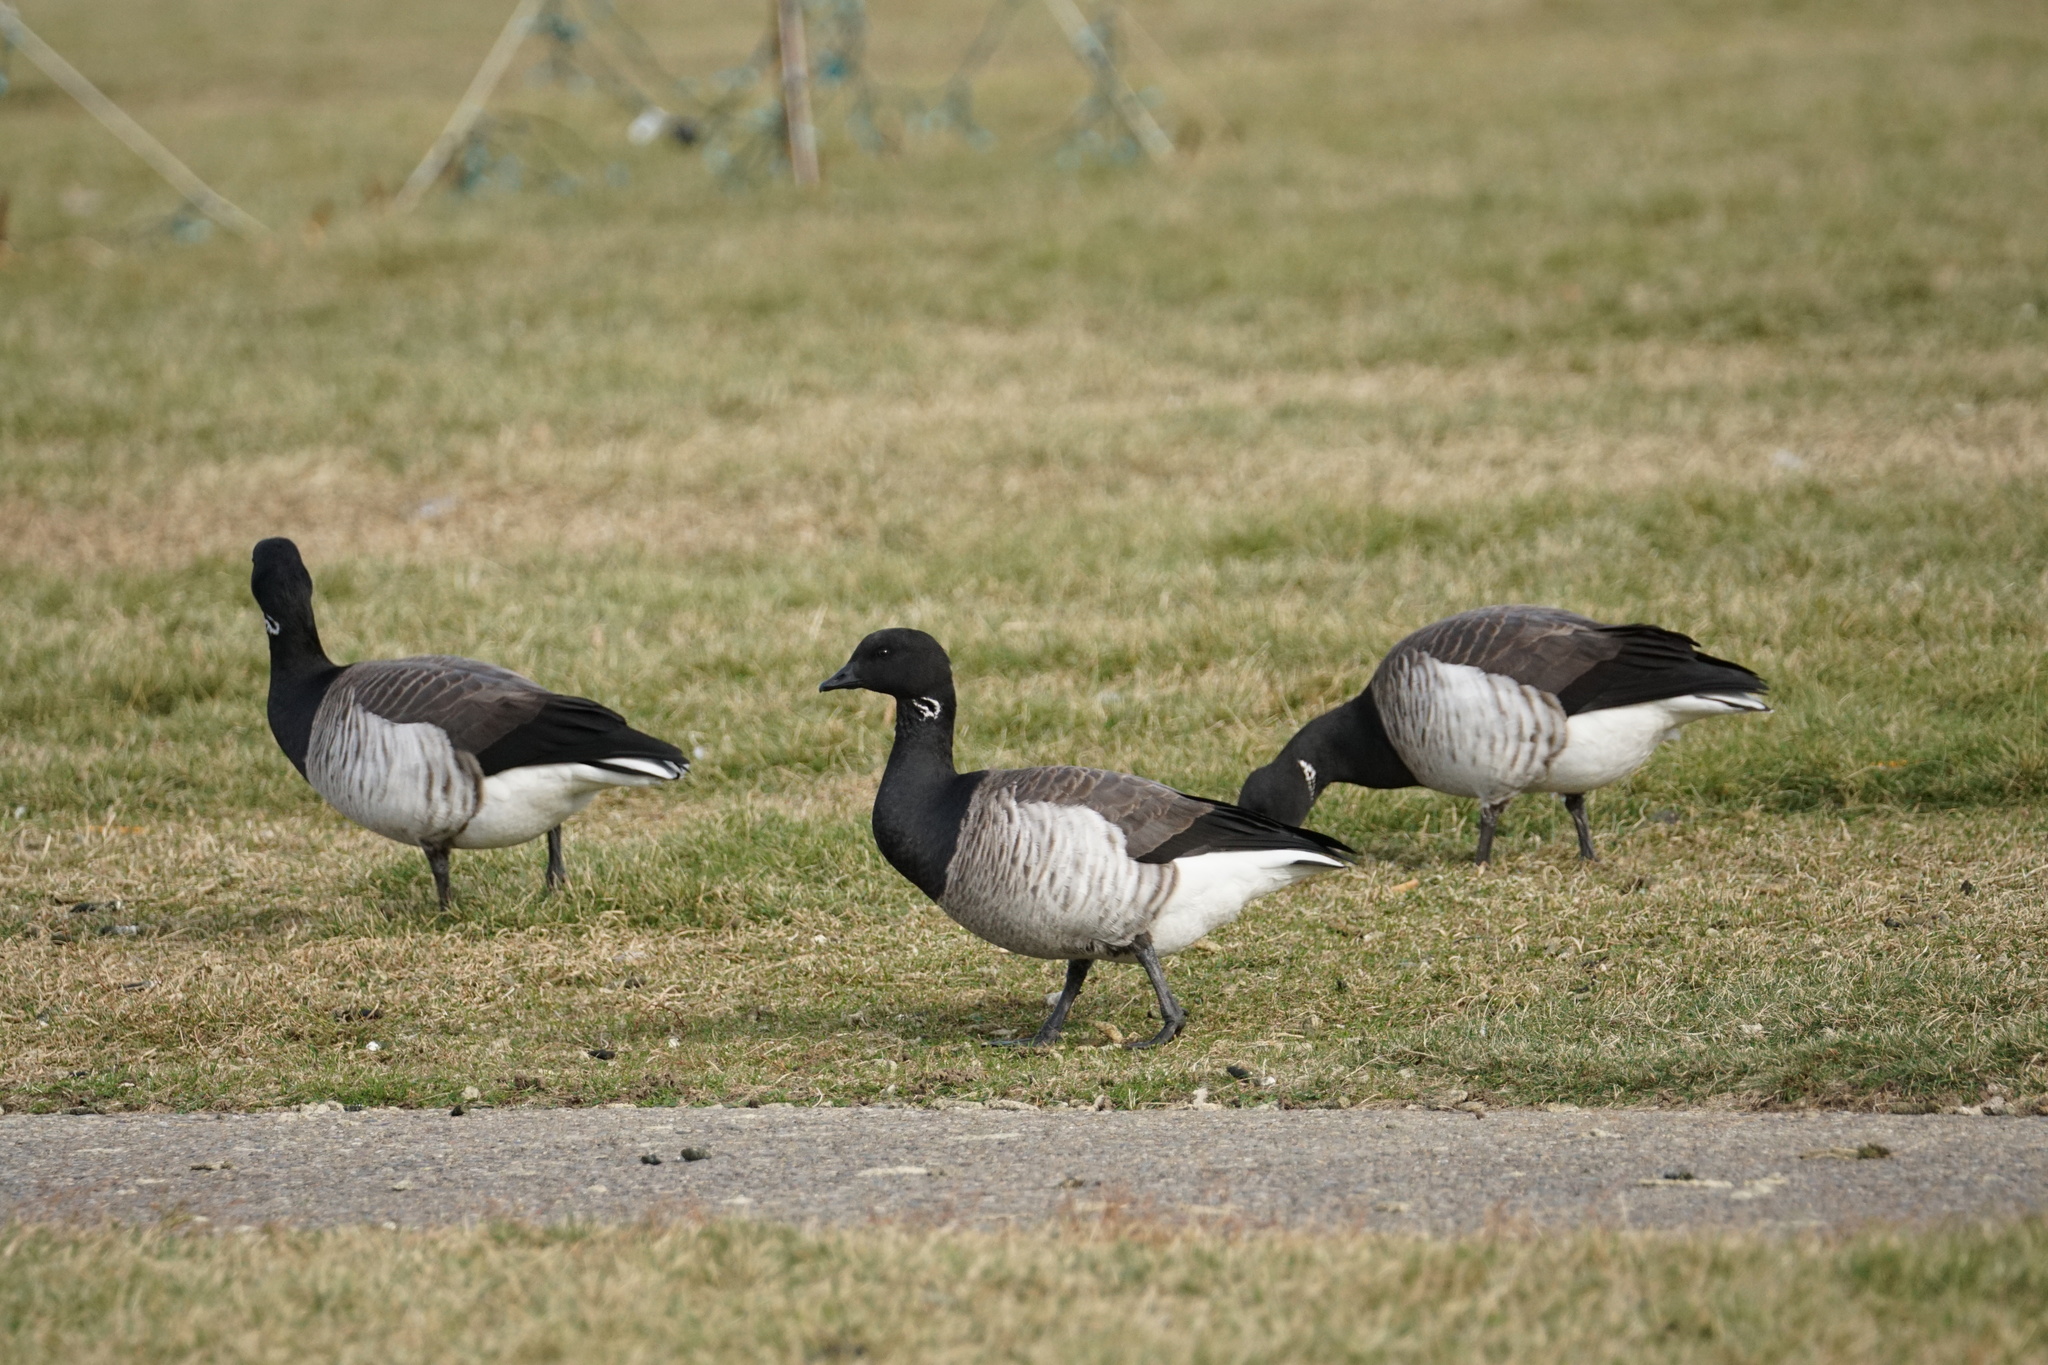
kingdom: Animalia
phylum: Chordata
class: Aves
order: Anseriformes
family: Anatidae
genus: Branta
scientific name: Branta bernicla
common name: Brant goose
